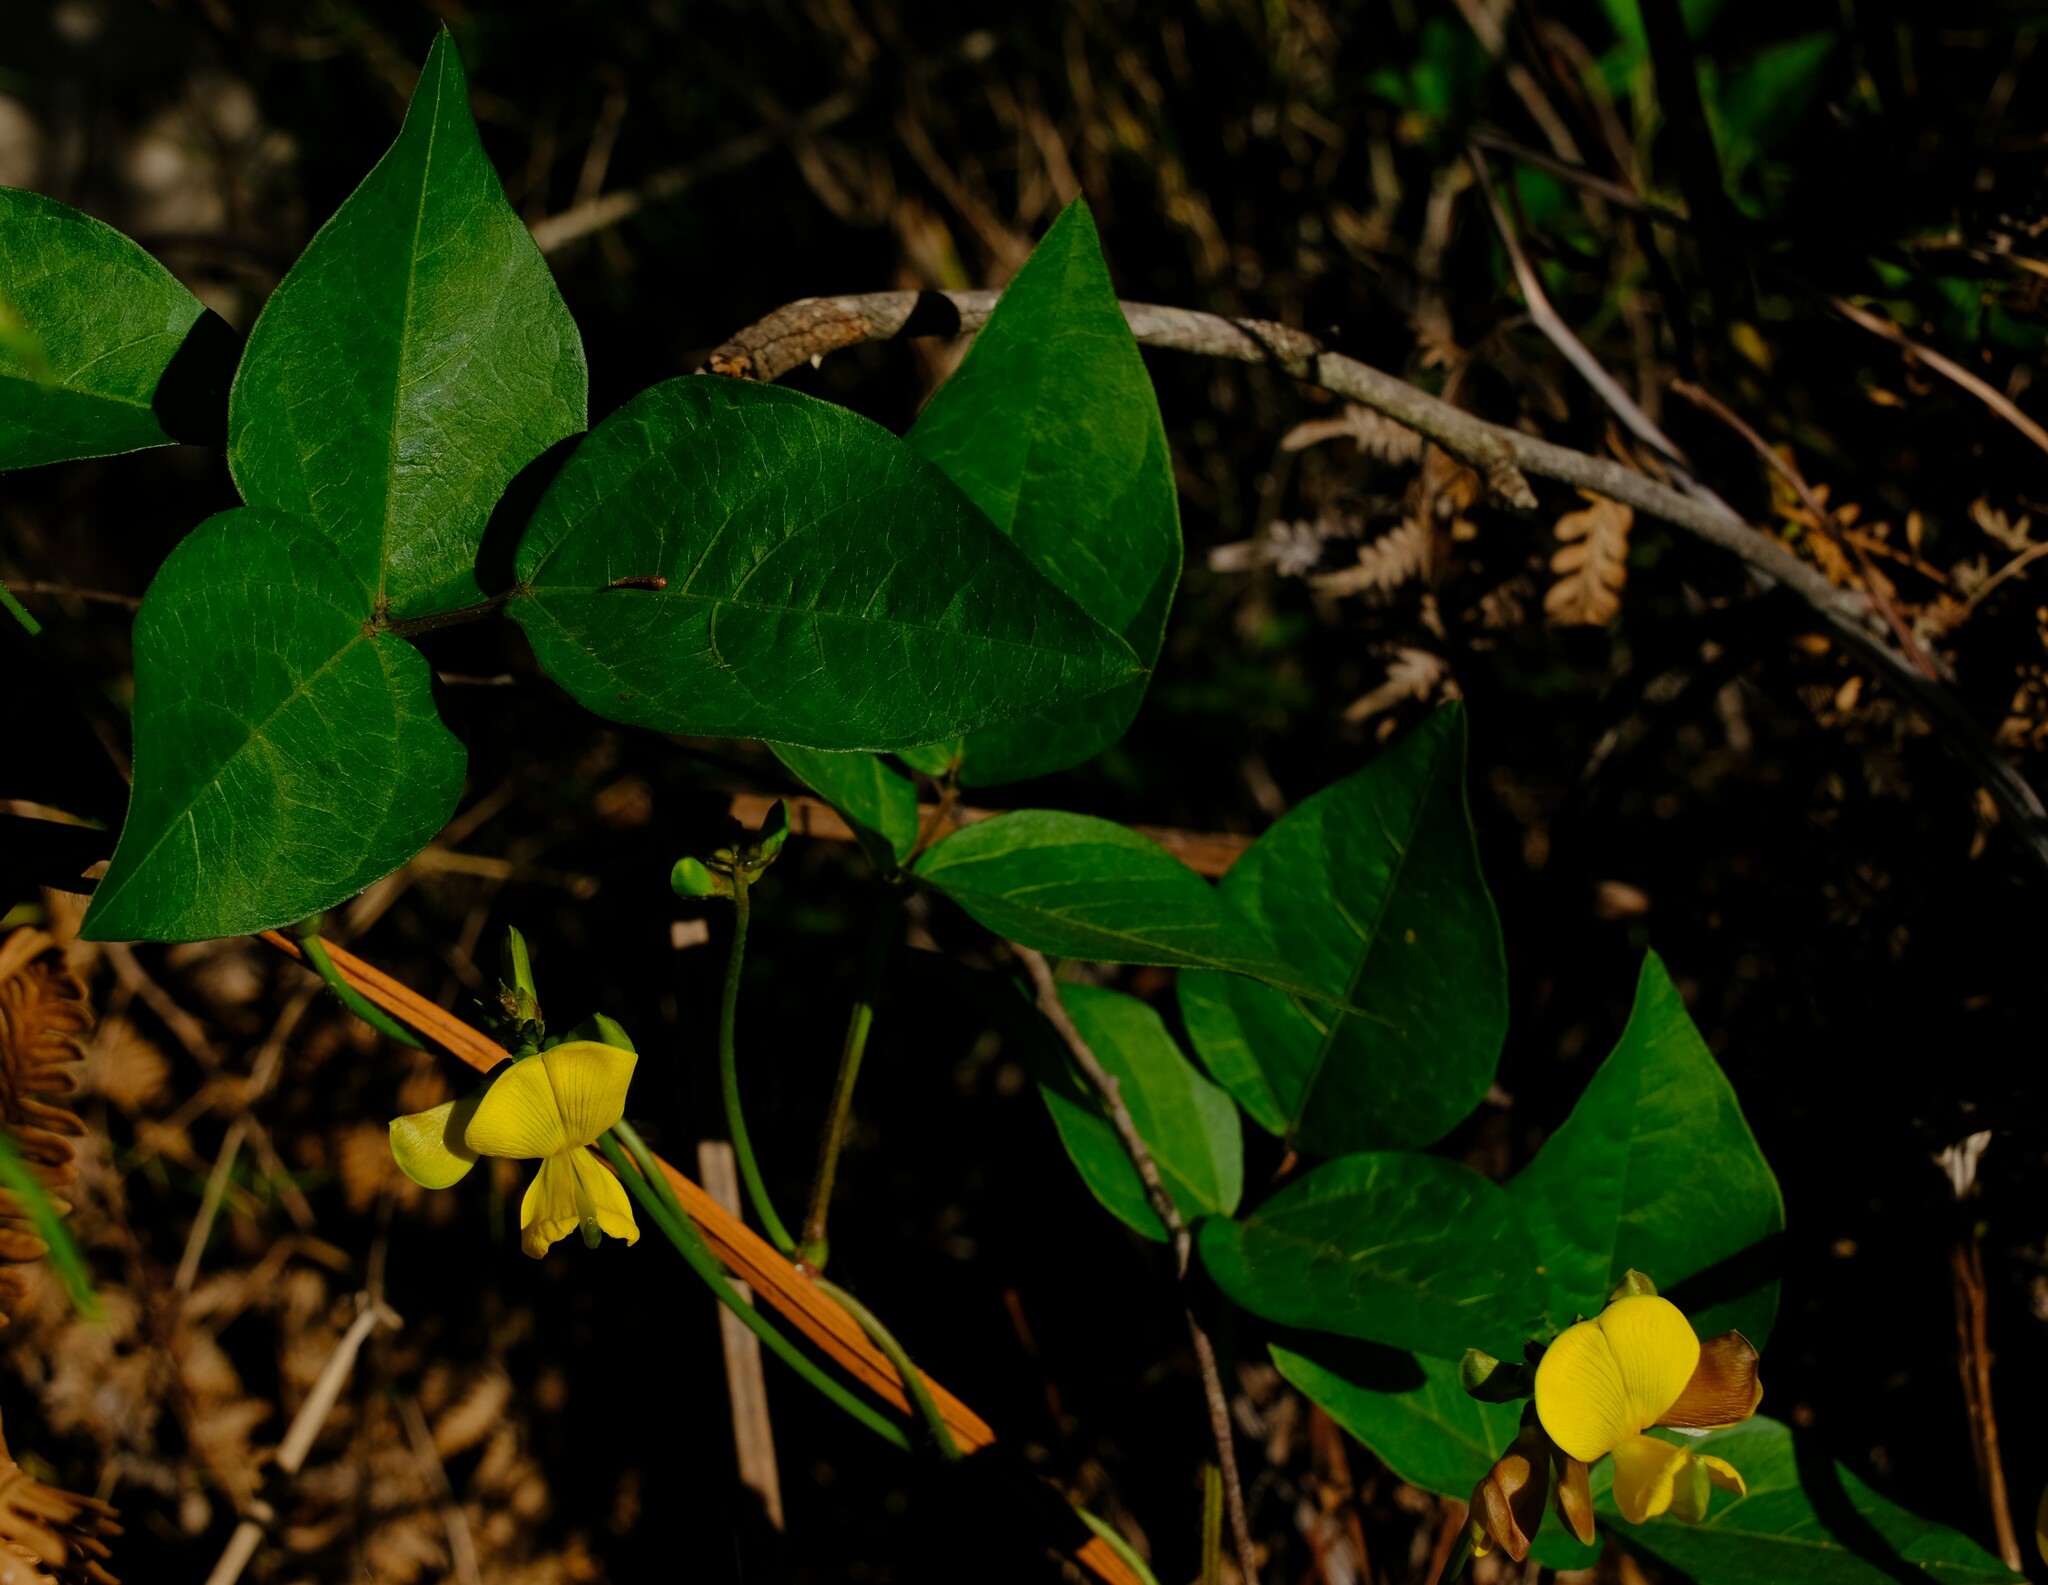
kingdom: Plantae
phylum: Tracheophyta
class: Magnoliopsida
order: Fabales
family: Fabaceae
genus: Vigna
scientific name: Vigna luteola
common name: Hairypod cowpea
